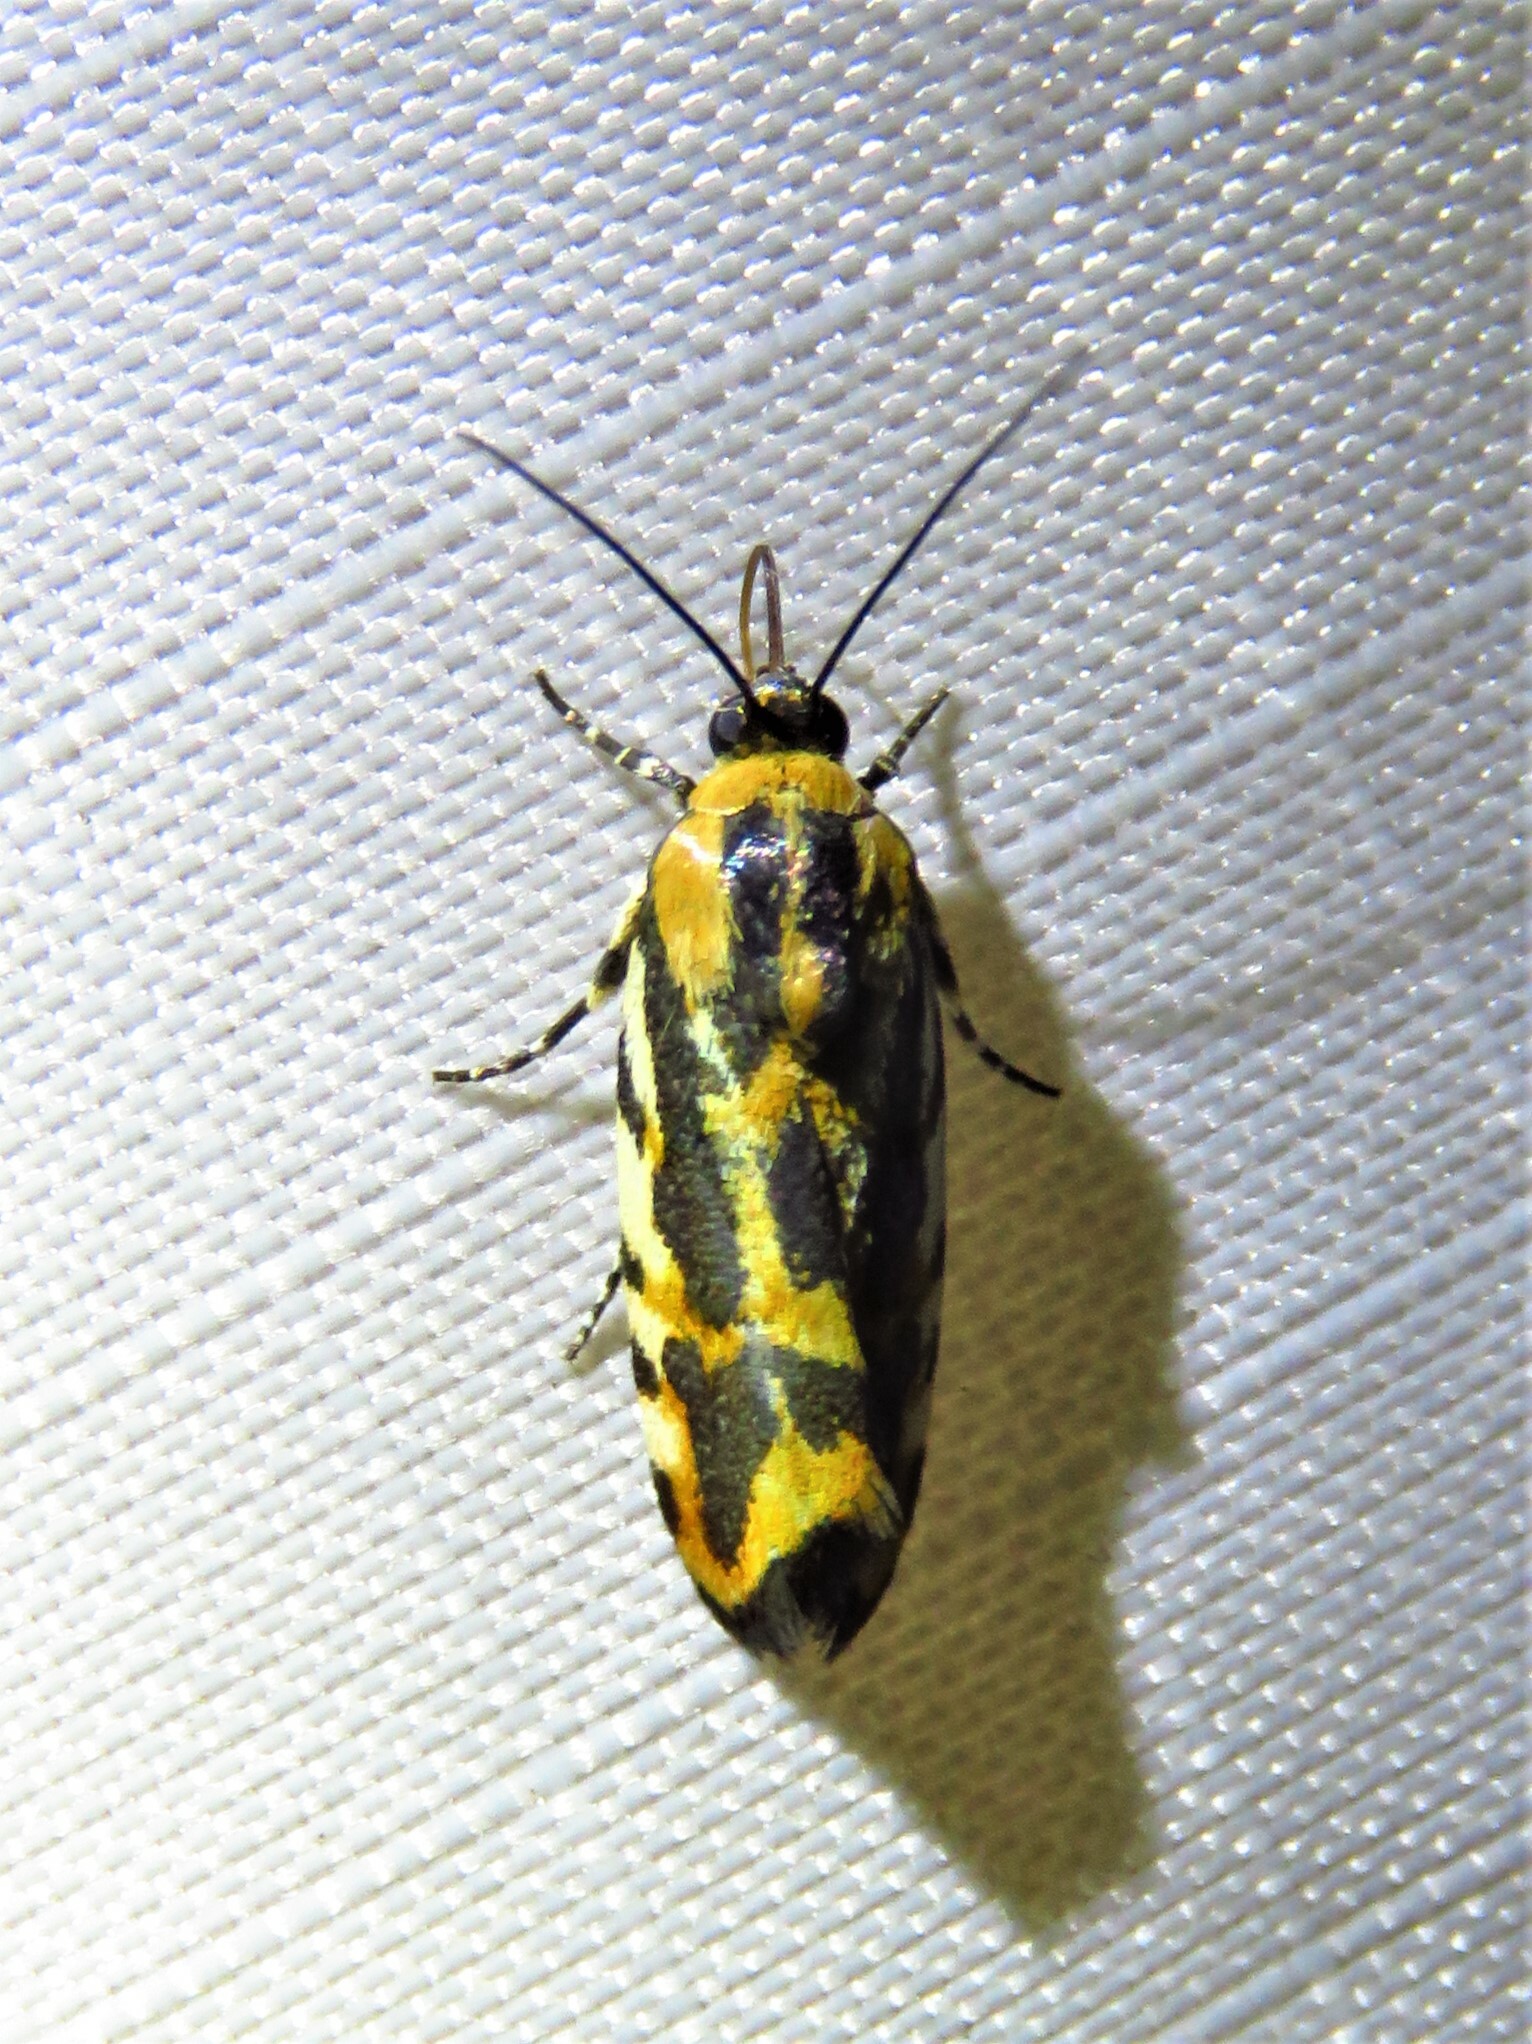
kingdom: Animalia
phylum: Arthropoda
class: Insecta
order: Lepidoptera
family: Noctuidae
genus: Acontia
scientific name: Acontia leo
